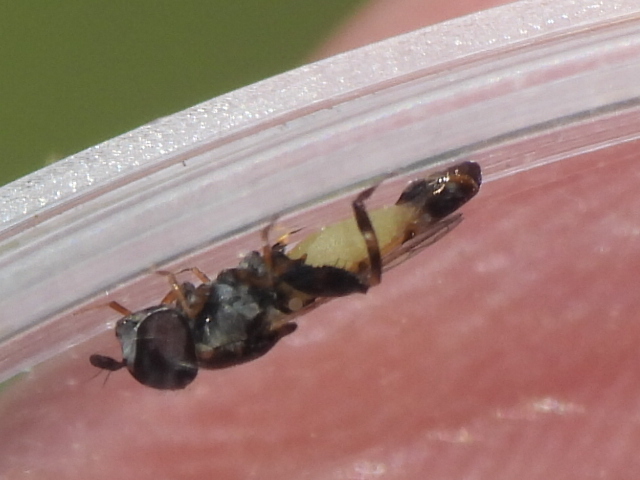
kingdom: Animalia
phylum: Arthropoda
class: Insecta
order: Diptera
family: Syrphidae
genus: Syritta
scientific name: Syritta flaviventris
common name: Syrphid fly
